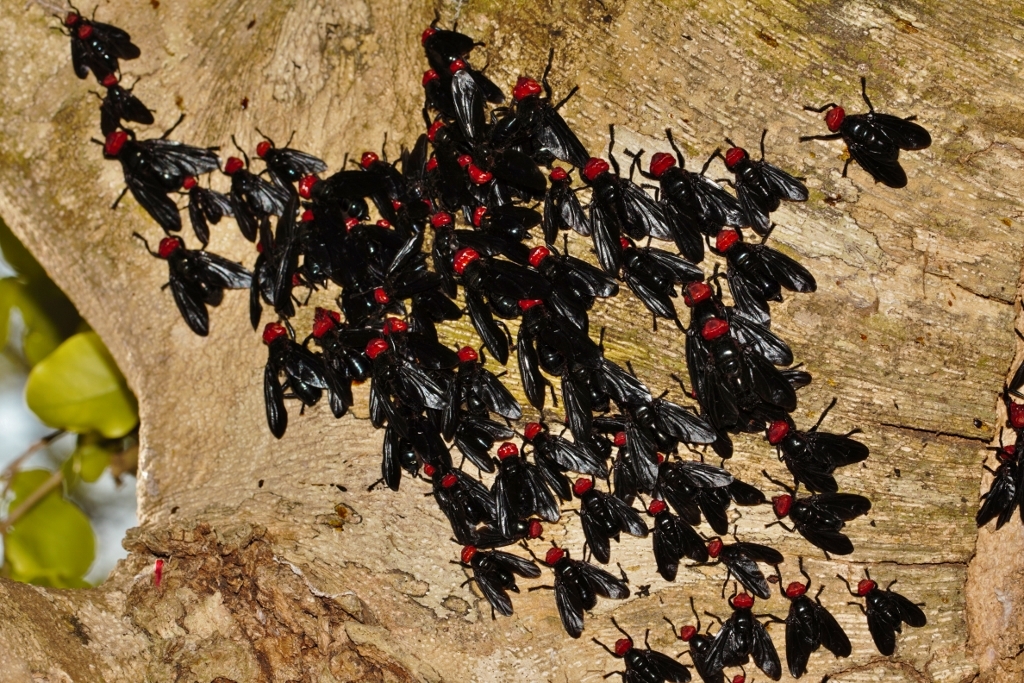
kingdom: Animalia
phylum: Arthropoda
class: Insecta
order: Diptera
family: Platystomatidae
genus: Bromophila
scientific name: Bromophila caffra
